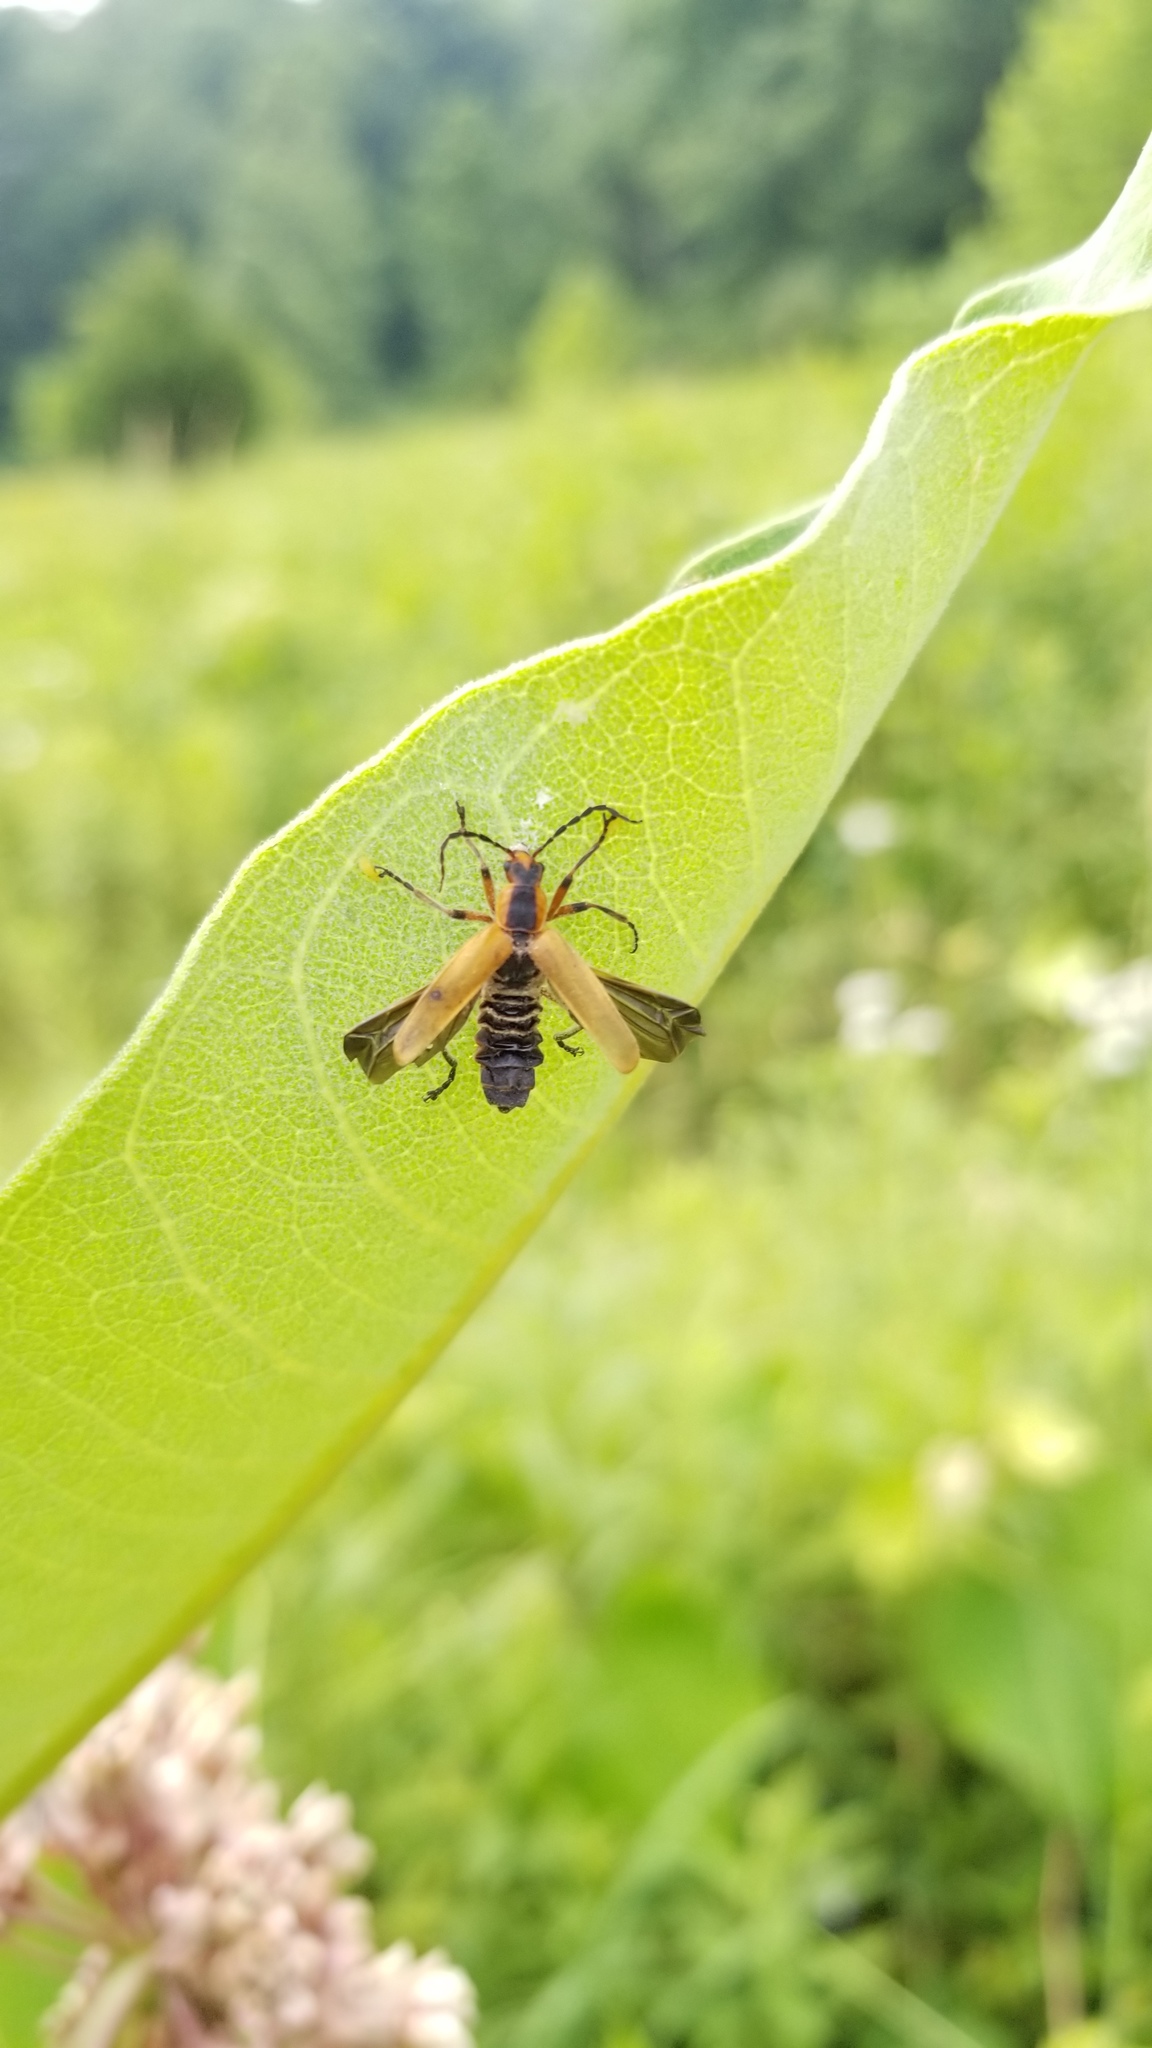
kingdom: Animalia
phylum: Arthropoda
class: Insecta
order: Coleoptera
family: Cantharidae
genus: Chauliognathus
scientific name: Chauliognathus marginatus
